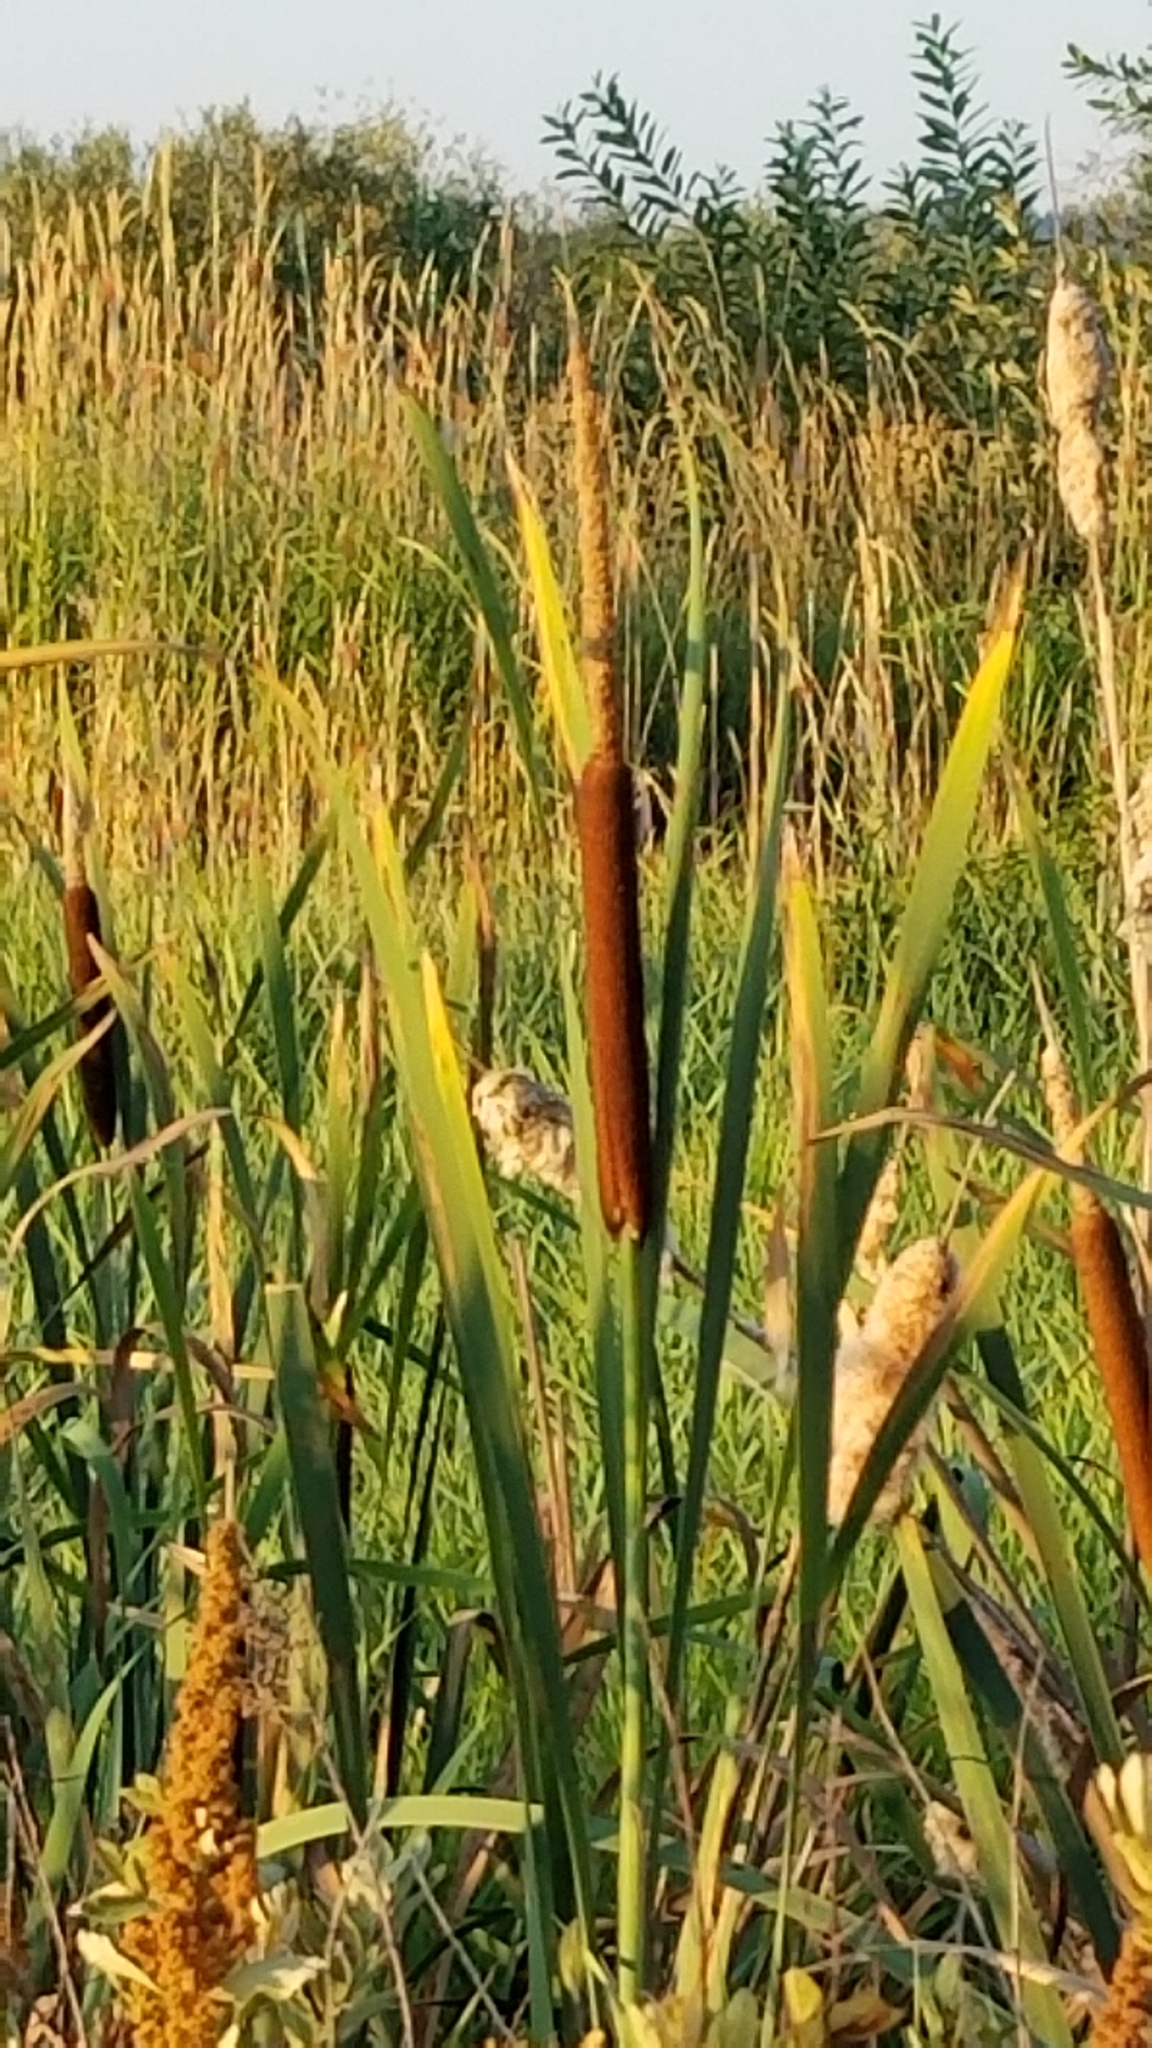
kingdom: Plantae
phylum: Tracheophyta
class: Liliopsida
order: Poales
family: Typhaceae
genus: Typha
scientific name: Typha latifolia
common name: Broadleaf cattail
